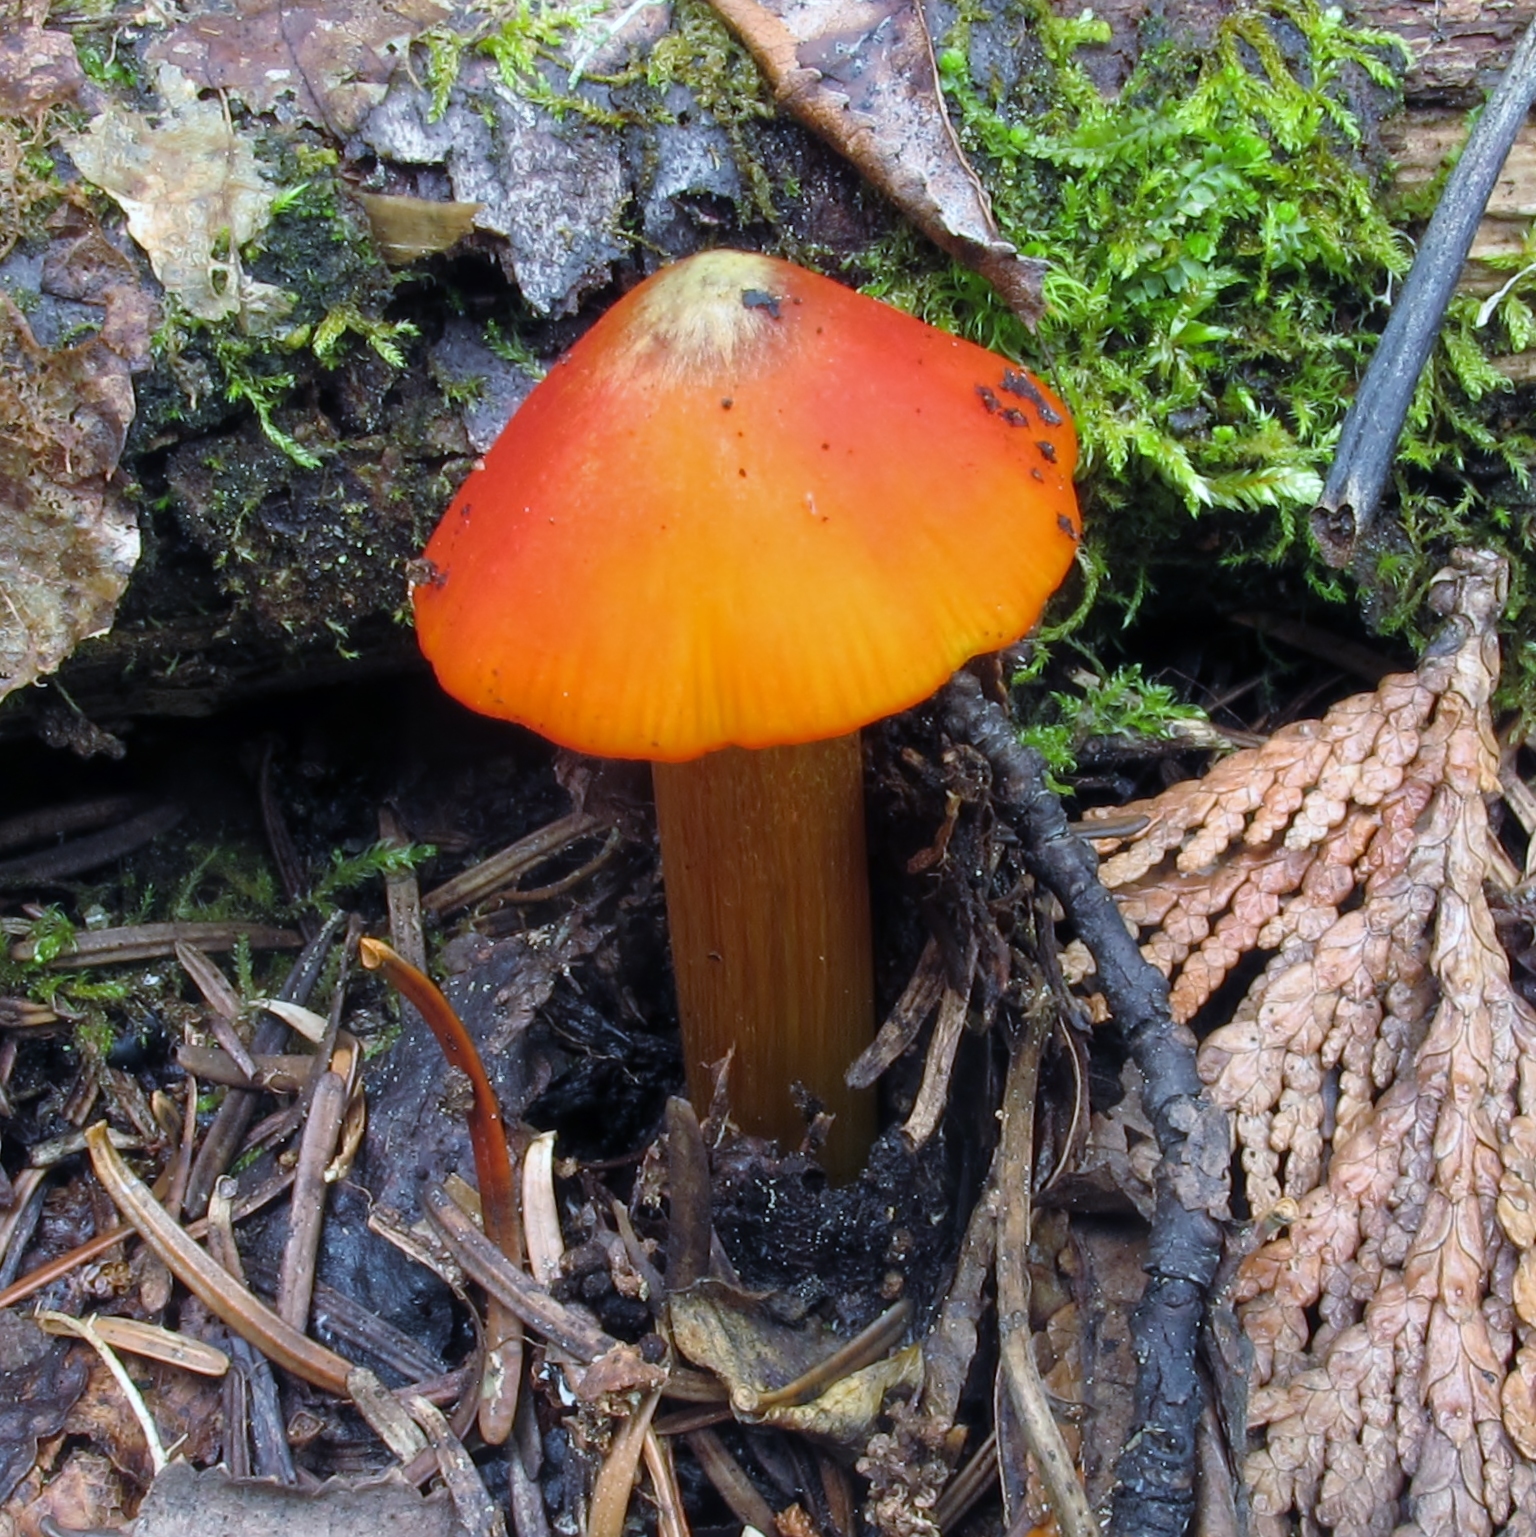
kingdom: Fungi
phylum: Basidiomycota
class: Agaricomycetes
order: Agaricales
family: Hygrophoraceae
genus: Hygrocybe
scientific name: Hygrocybe conica
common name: Blackening wax-cap
